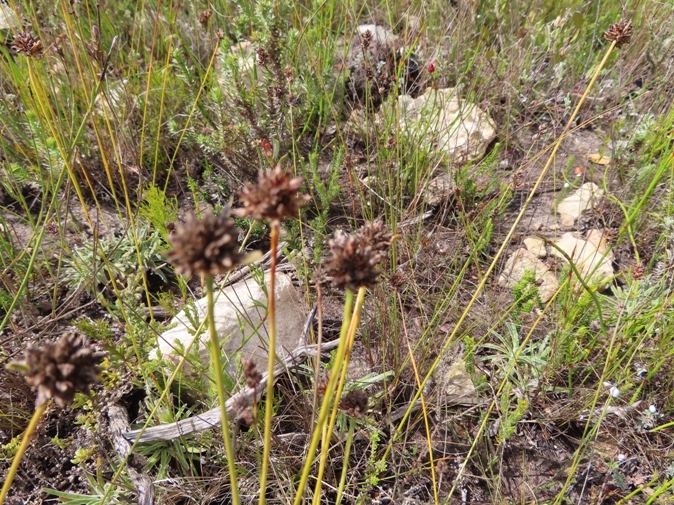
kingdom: Plantae
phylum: Tracheophyta
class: Liliopsida
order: Poales
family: Cyperaceae
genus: Ficinia
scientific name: Ficinia truncata
